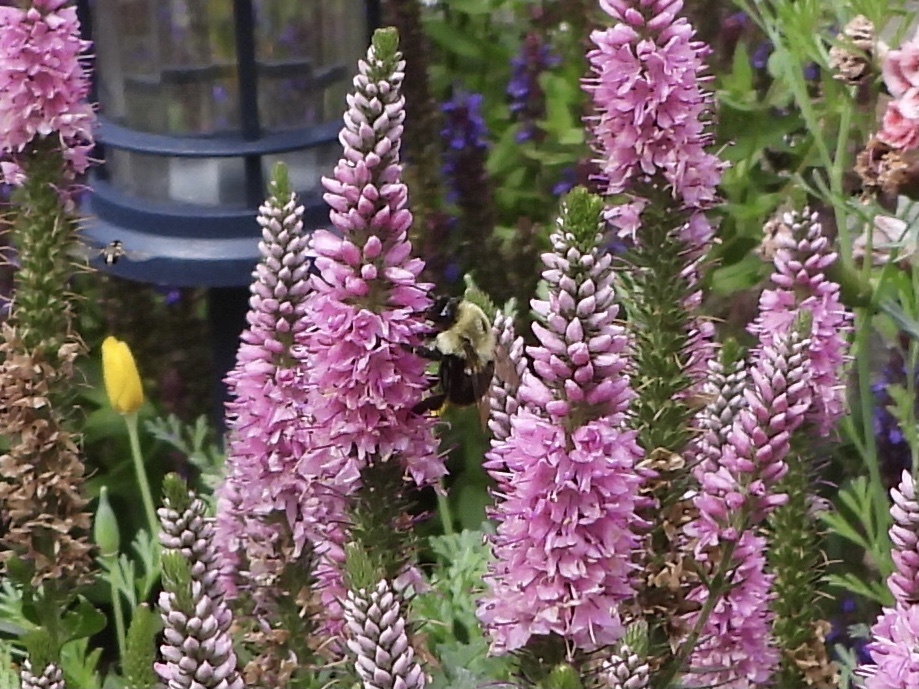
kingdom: Animalia
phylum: Arthropoda
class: Insecta
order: Hymenoptera
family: Apidae
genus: Bombus
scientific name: Bombus impatiens
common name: Common eastern bumble bee
